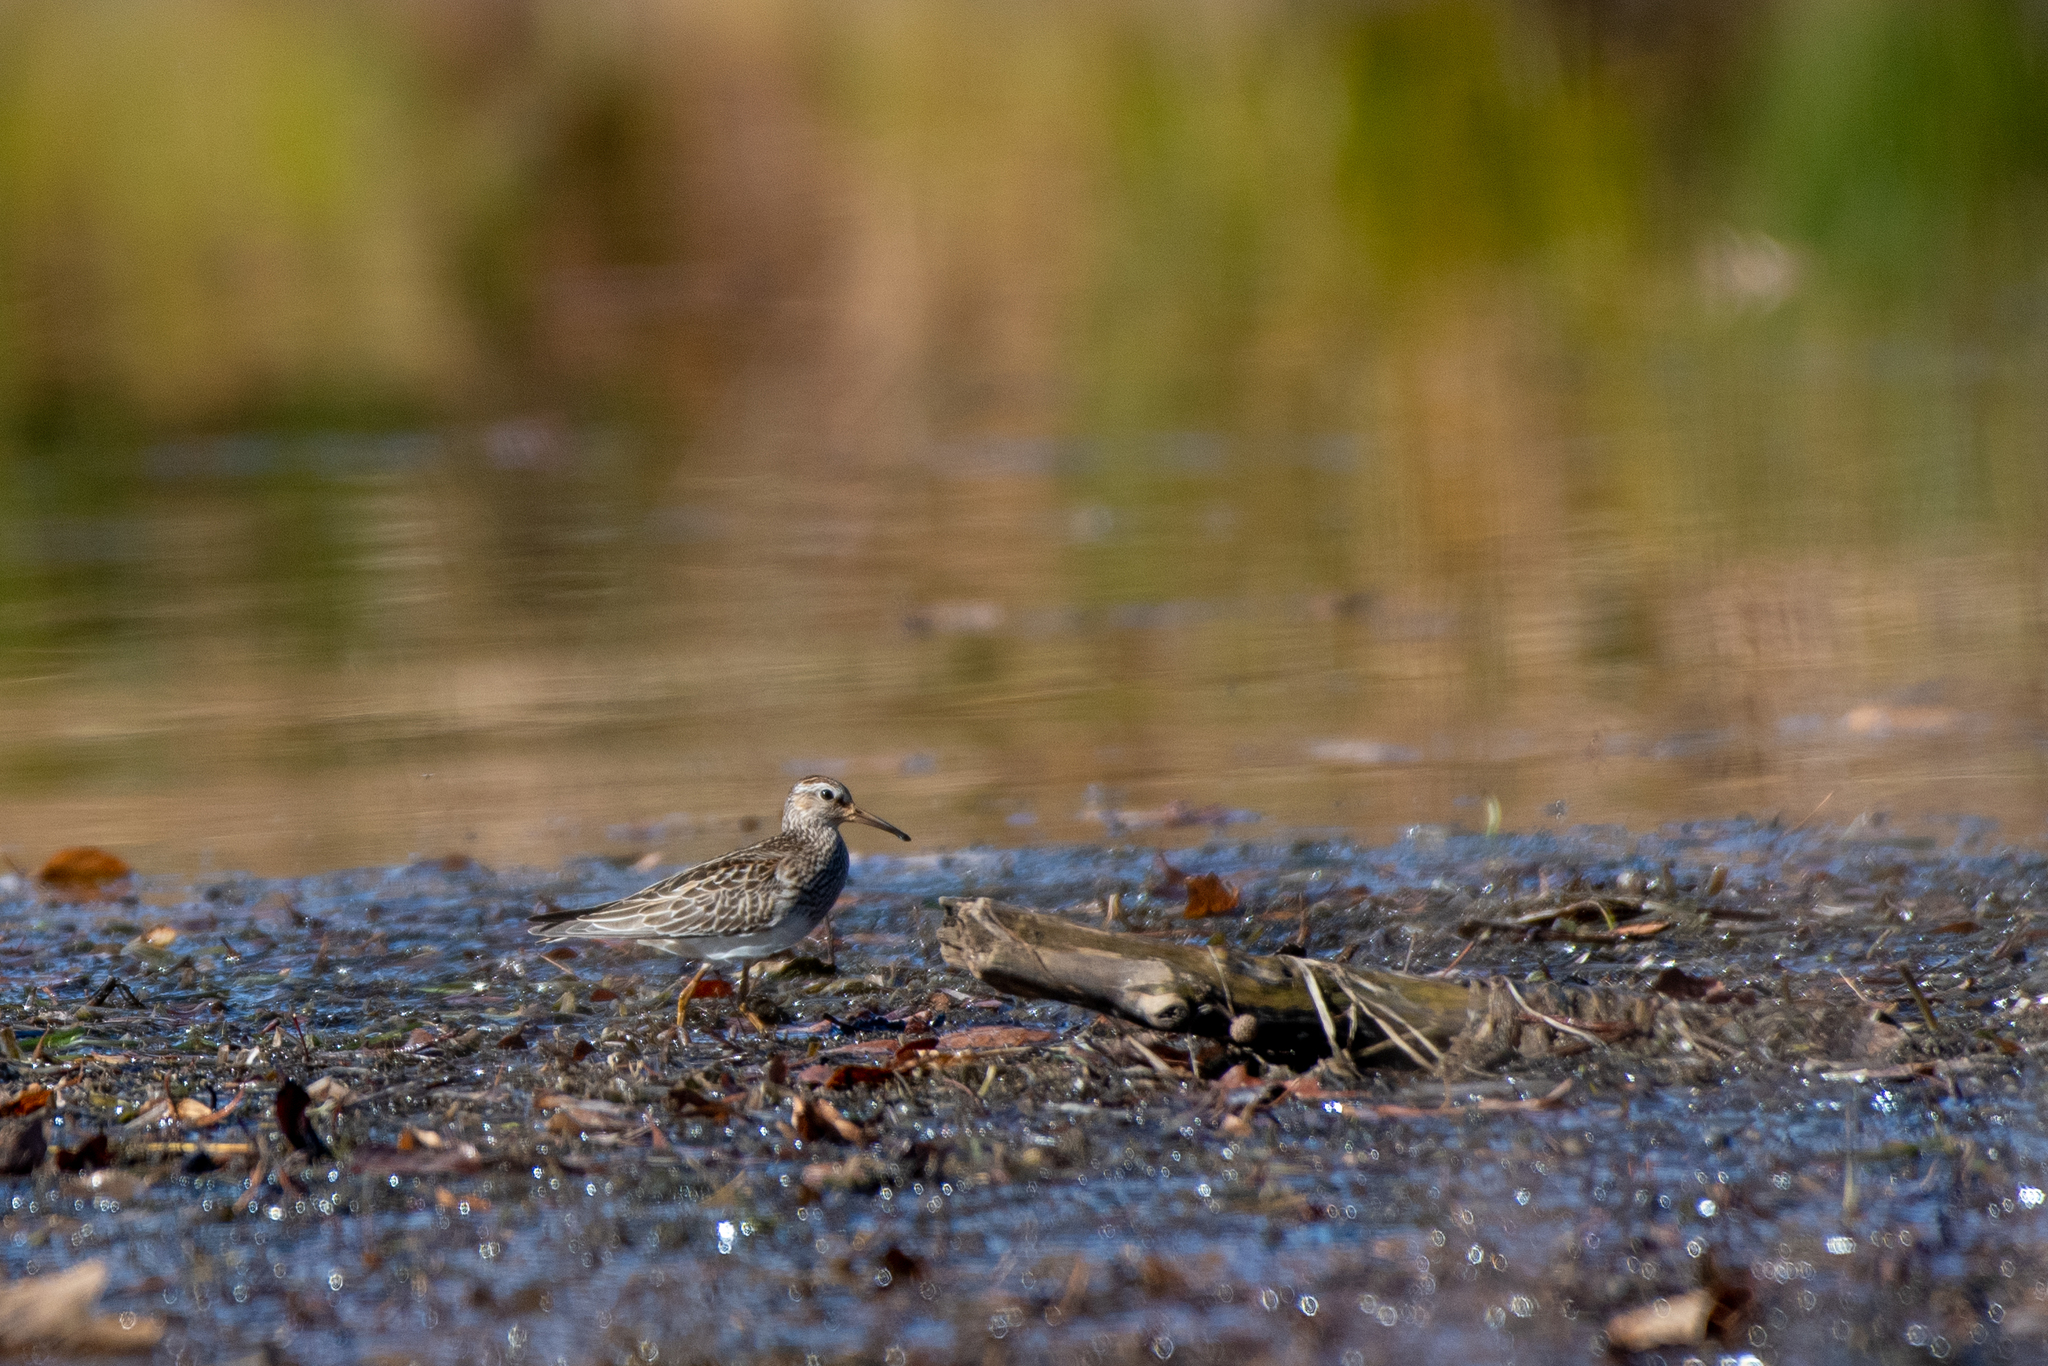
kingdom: Animalia
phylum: Chordata
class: Aves
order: Charadriiformes
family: Scolopacidae
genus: Calidris
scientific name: Calidris melanotos
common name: Pectoral sandpiper
